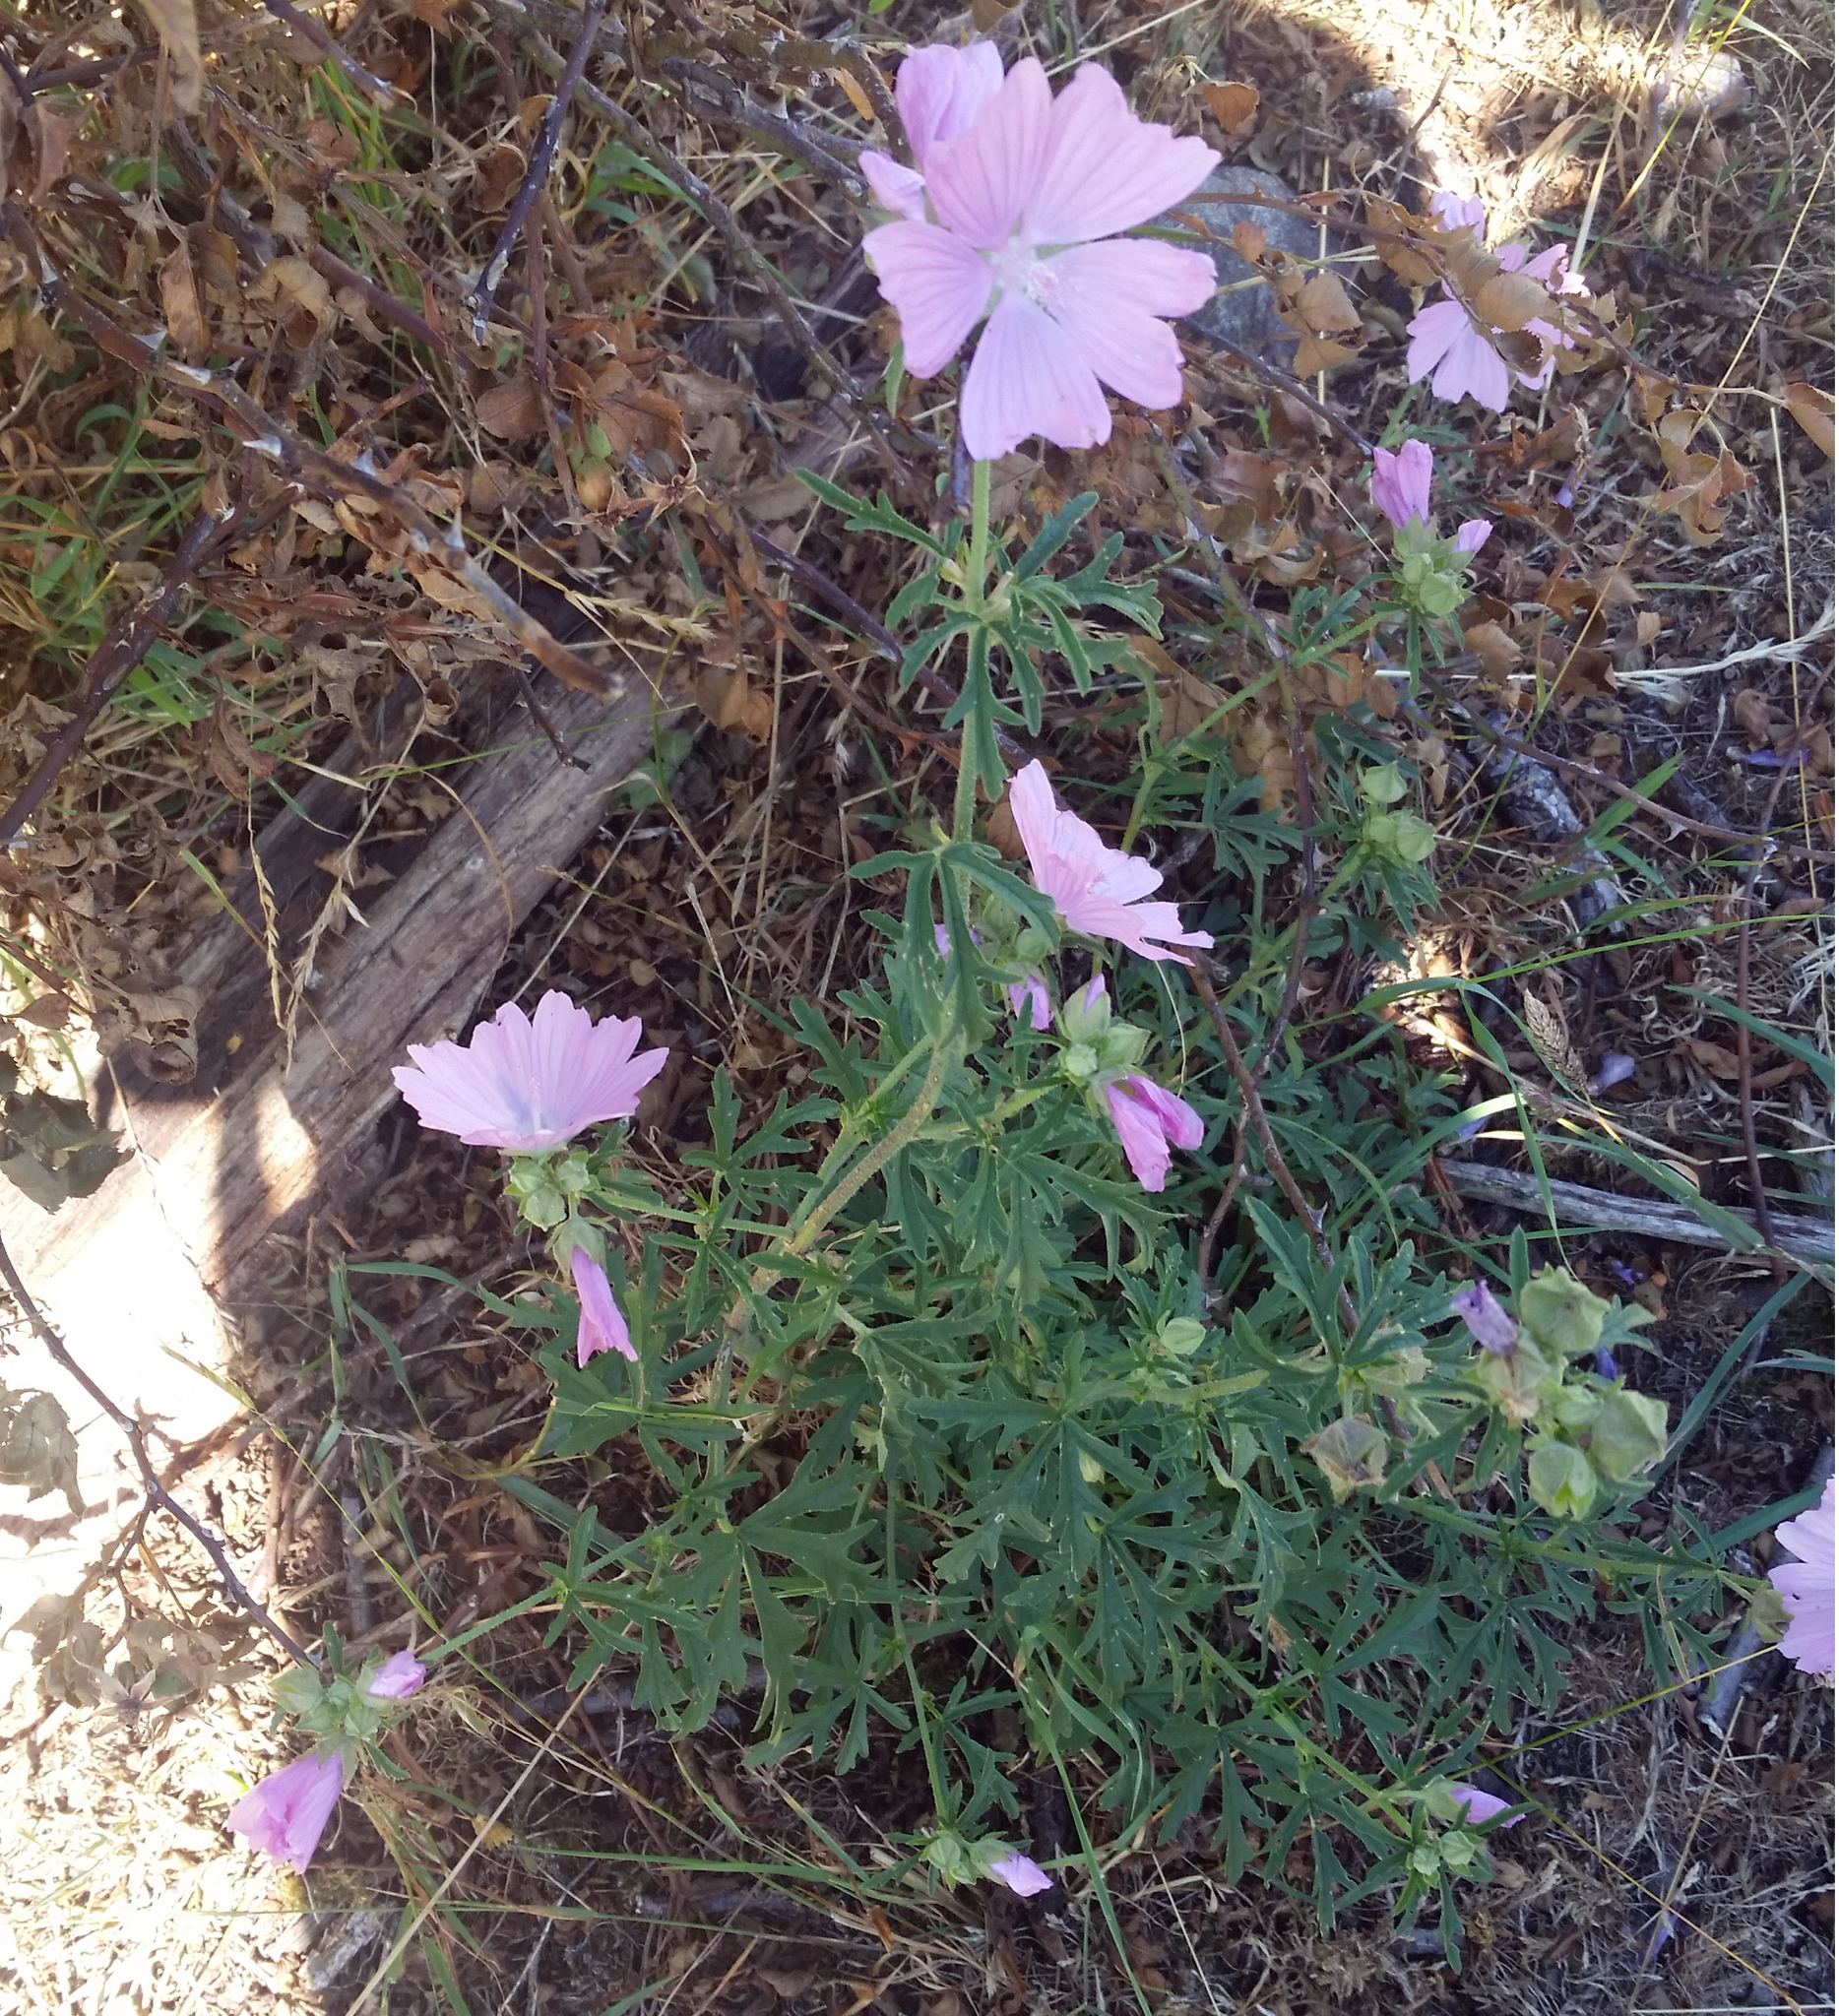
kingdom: Plantae
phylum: Tracheophyta
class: Magnoliopsida
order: Malvales
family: Malvaceae
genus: Malva
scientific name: Malva alcea
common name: Greater musk-mallow
